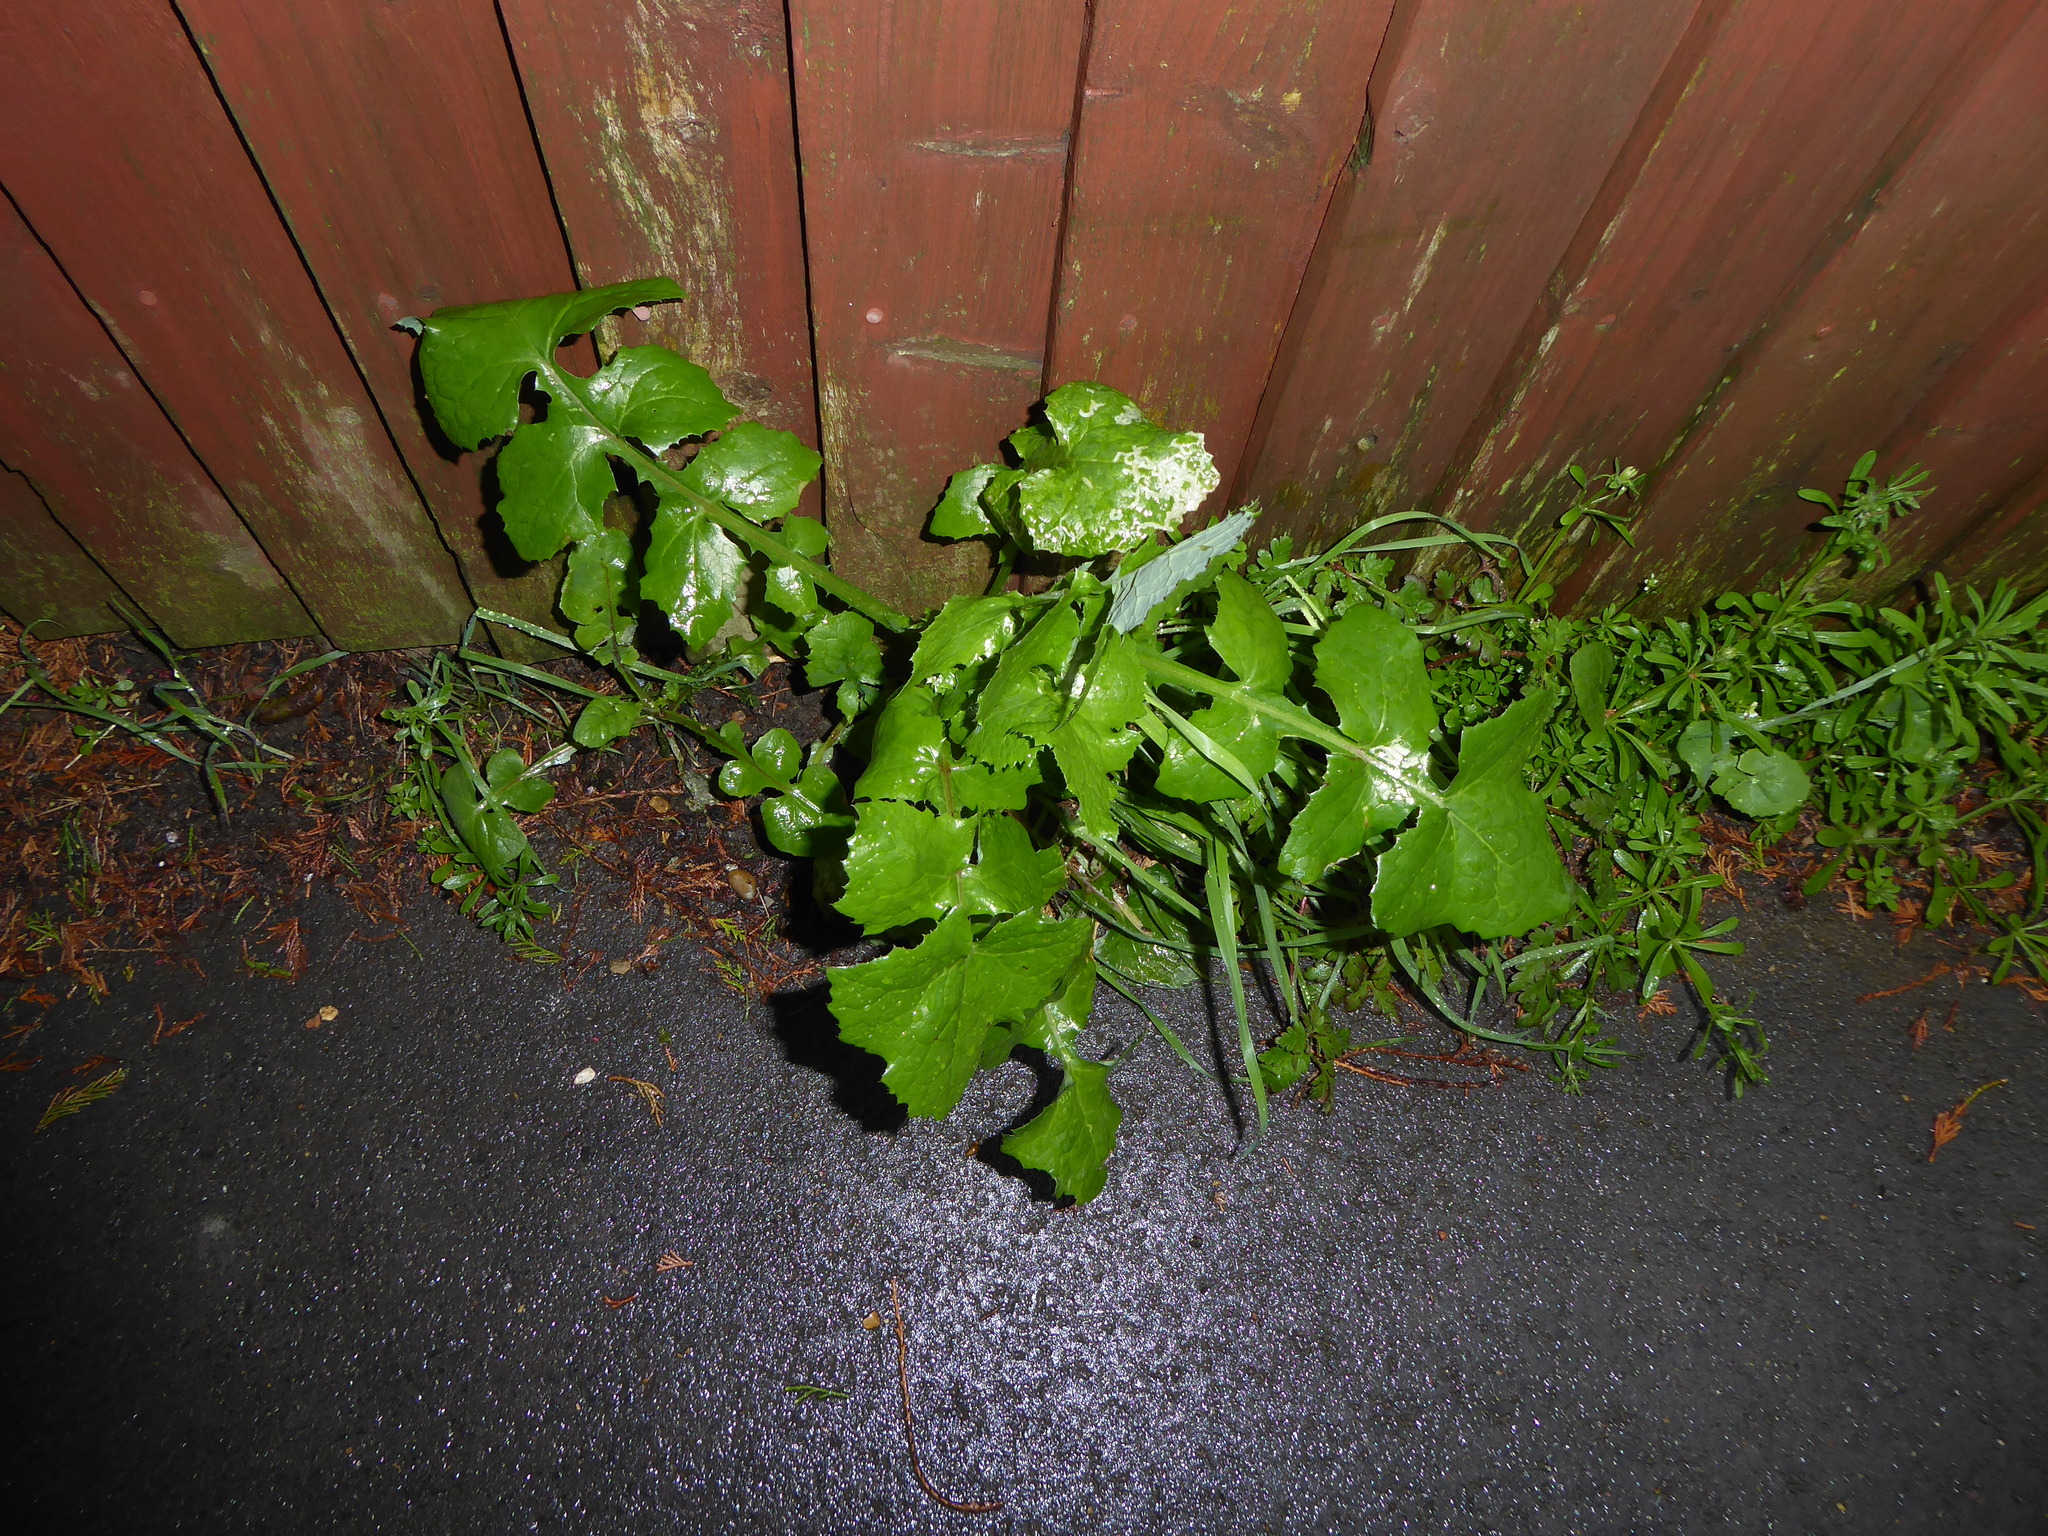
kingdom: Plantae
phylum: Tracheophyta
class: Magnoliopsida
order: Asterales
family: Asteraceae
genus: Sonchus
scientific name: Sonchus oleraceus
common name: Common sowthistle
